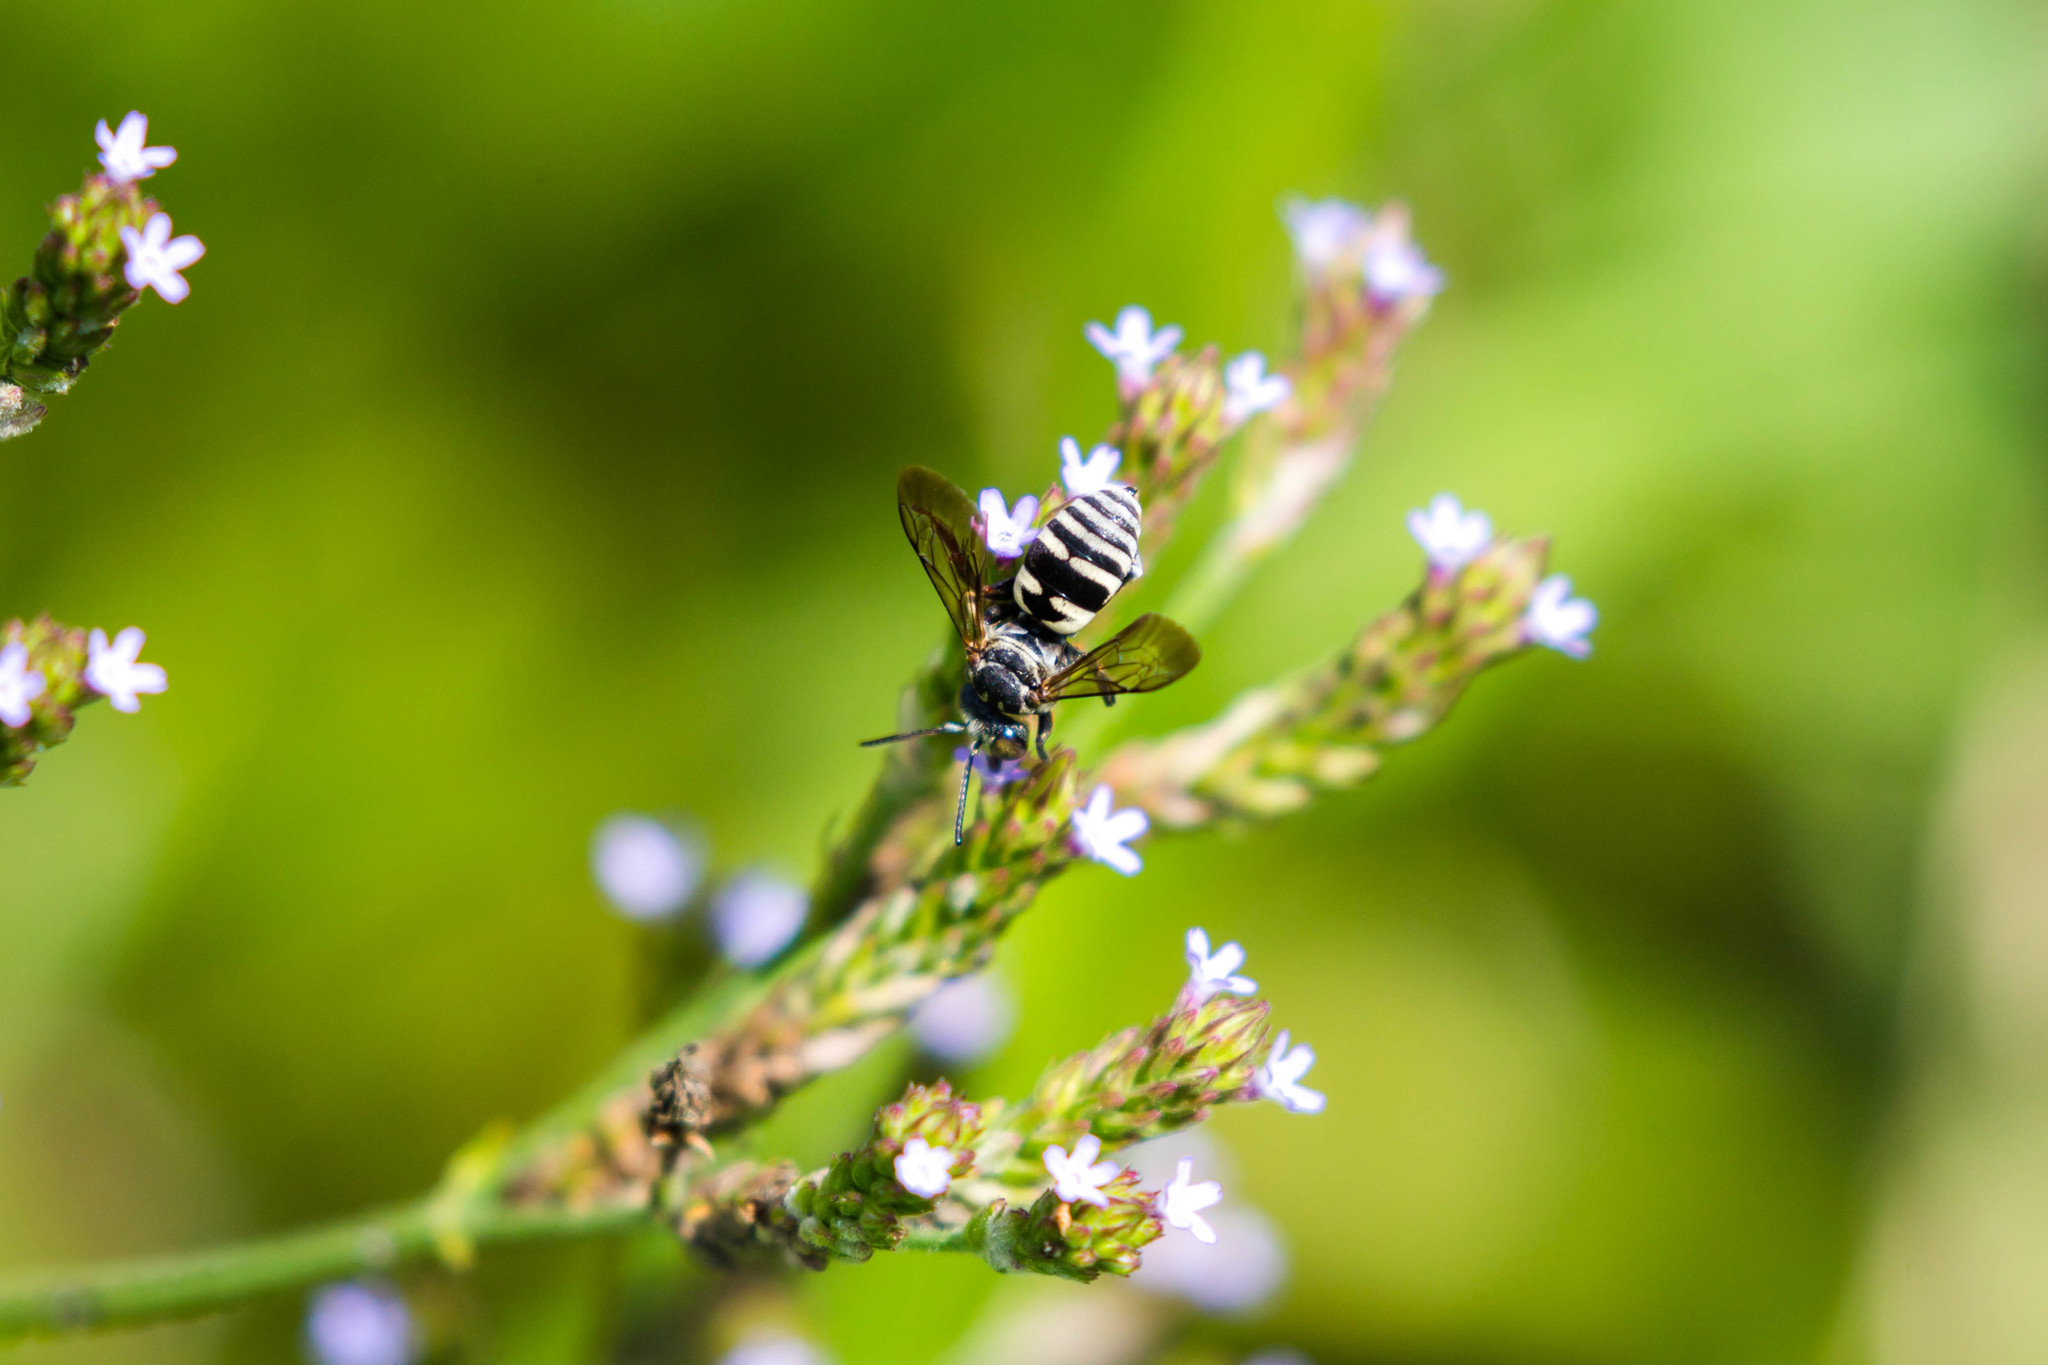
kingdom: Animalia
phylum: Arthropoda
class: Insecta
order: Hymenoptera
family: Apidae
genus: Triepeolus
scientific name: Triepeolus lunatus
